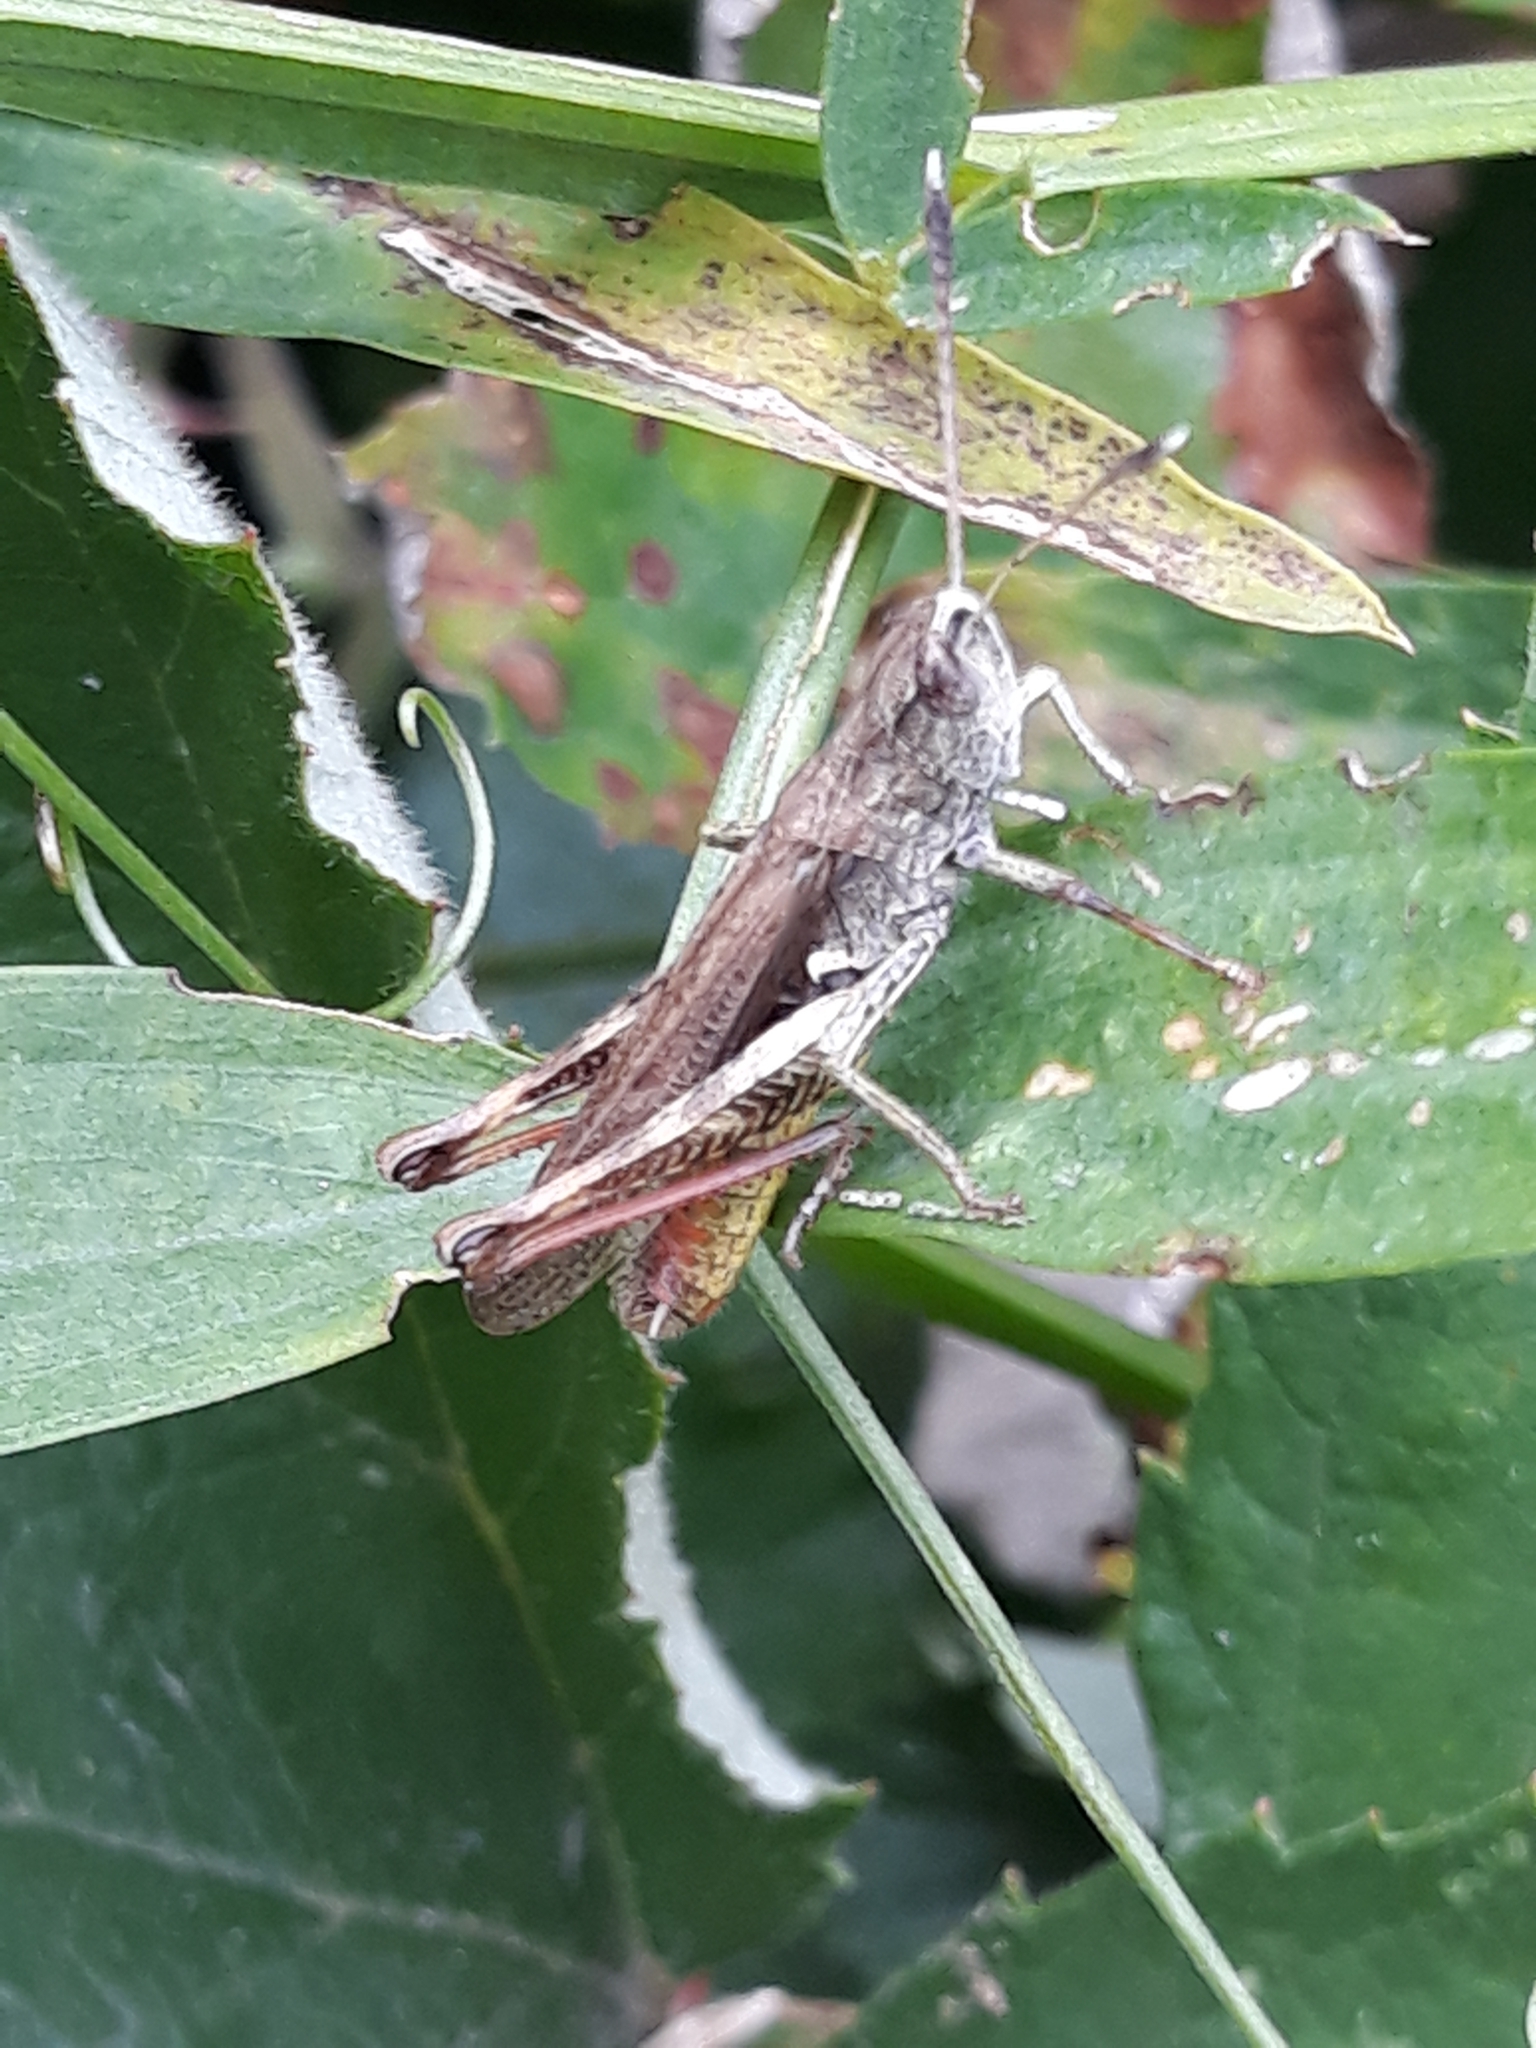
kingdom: Animalia
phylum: Arthropoda
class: Insecta
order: Orthoptera
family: Acrididae
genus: Gomphocerippus
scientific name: Gomphocerippus rufus
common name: Rufous grasshopper
